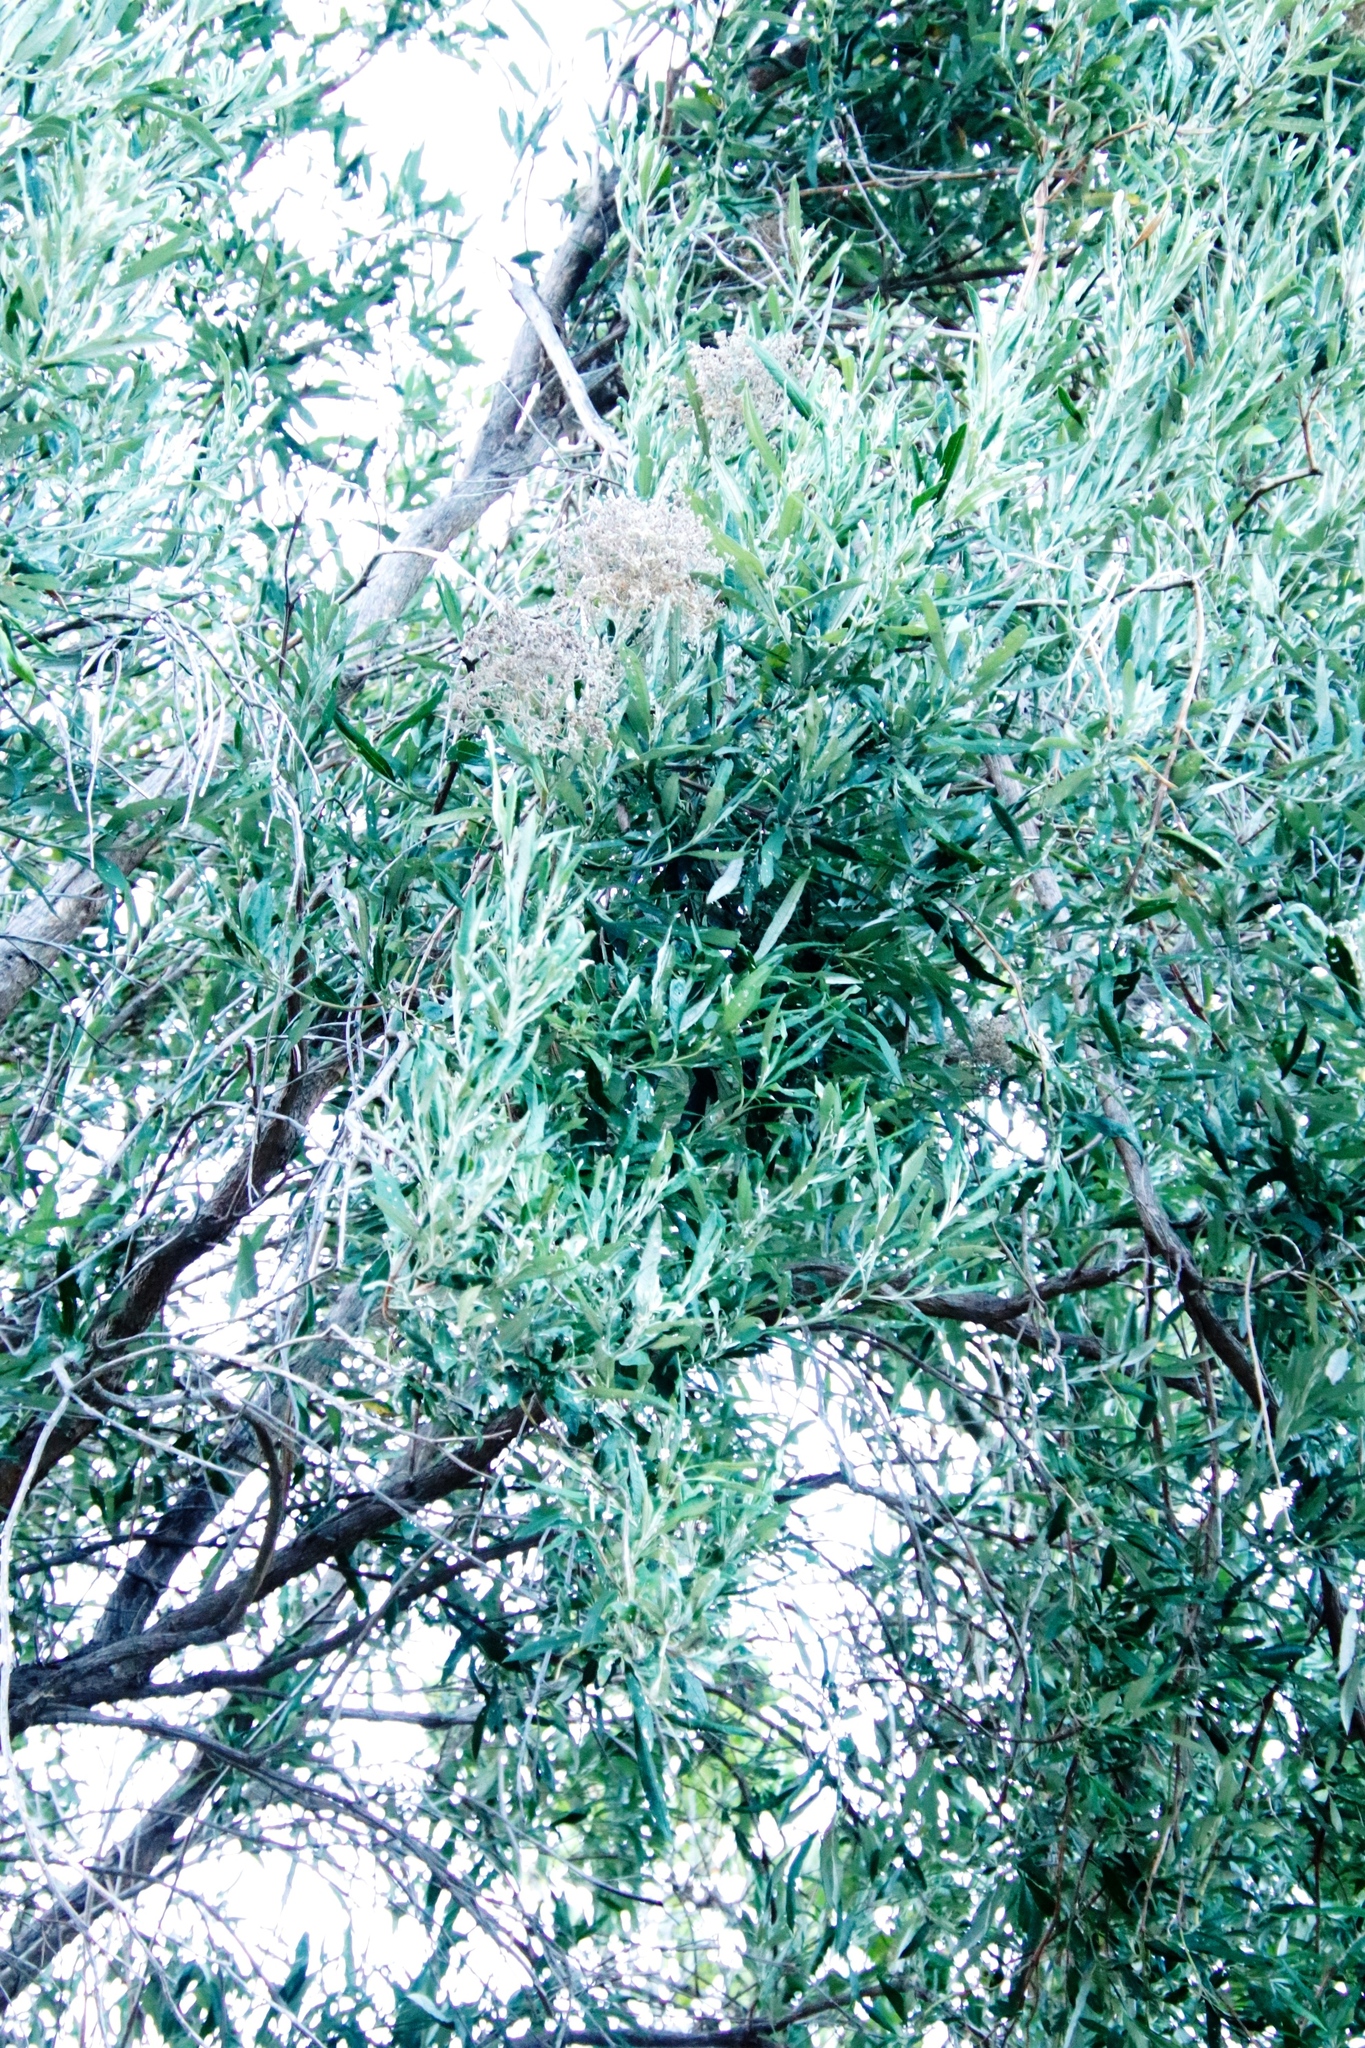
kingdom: Plantae
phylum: Tracheophyta
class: Magnoliopsida
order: Lamiales
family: Scrophulariaceae
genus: Buddleja
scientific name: Buddleja saligna
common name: False olive
